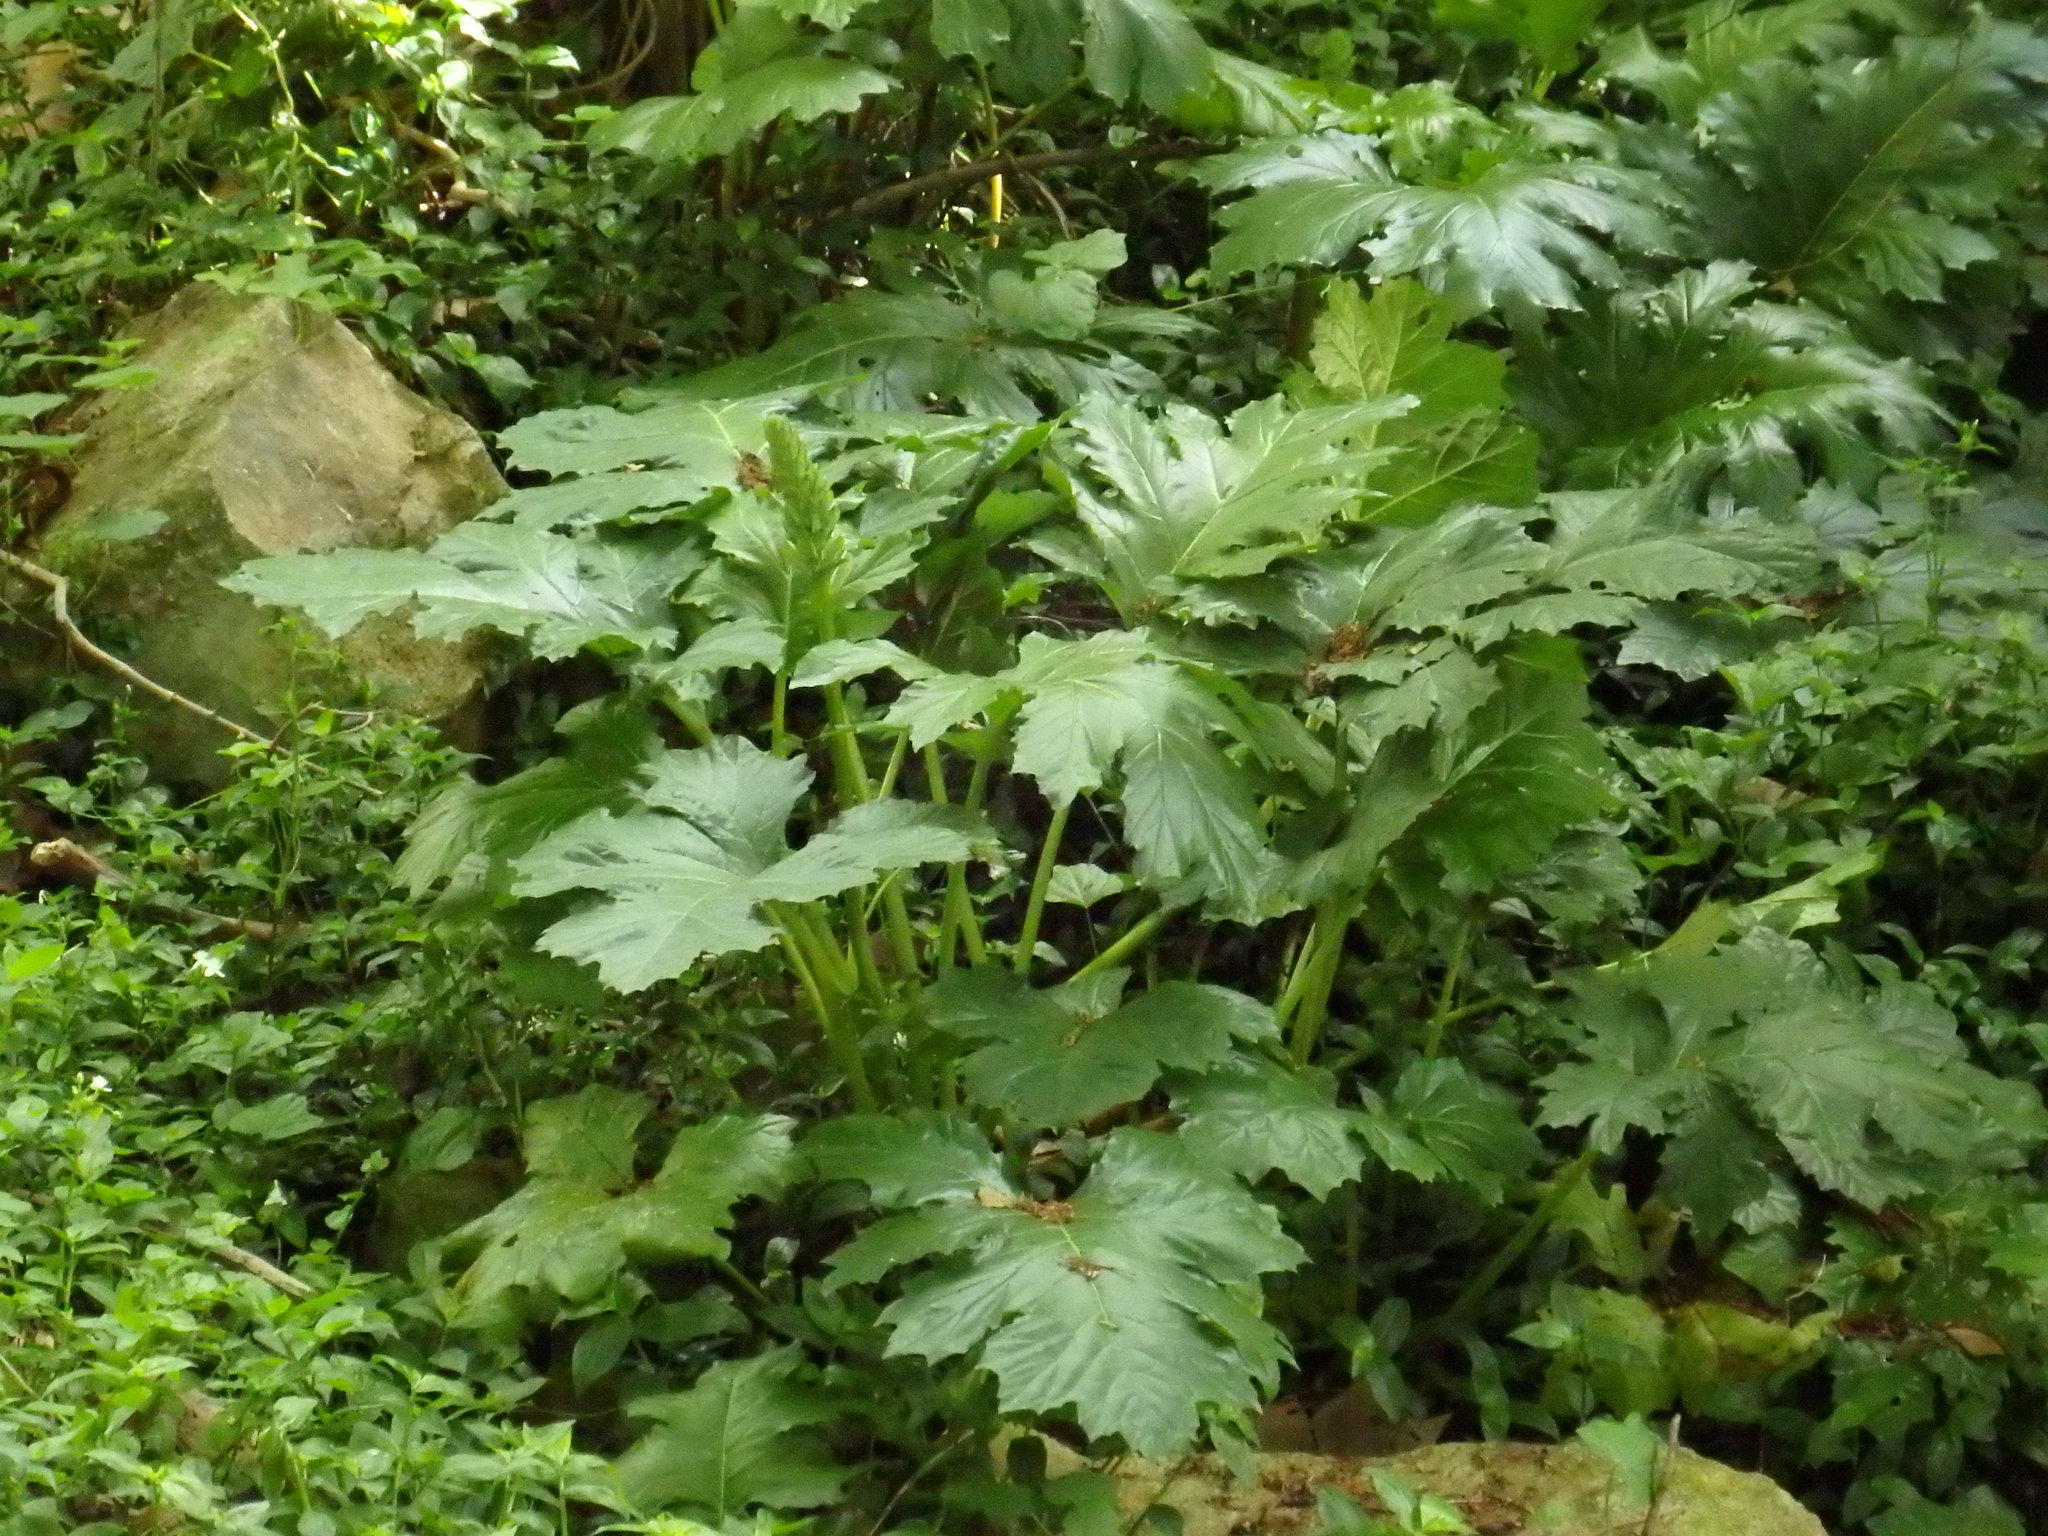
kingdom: Plantae
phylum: Tracheophyta
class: Magnoliopsida
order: Lamiales
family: Acanthaceae
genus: Acanthus
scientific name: Acanthus mollis
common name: Bear's-breech
